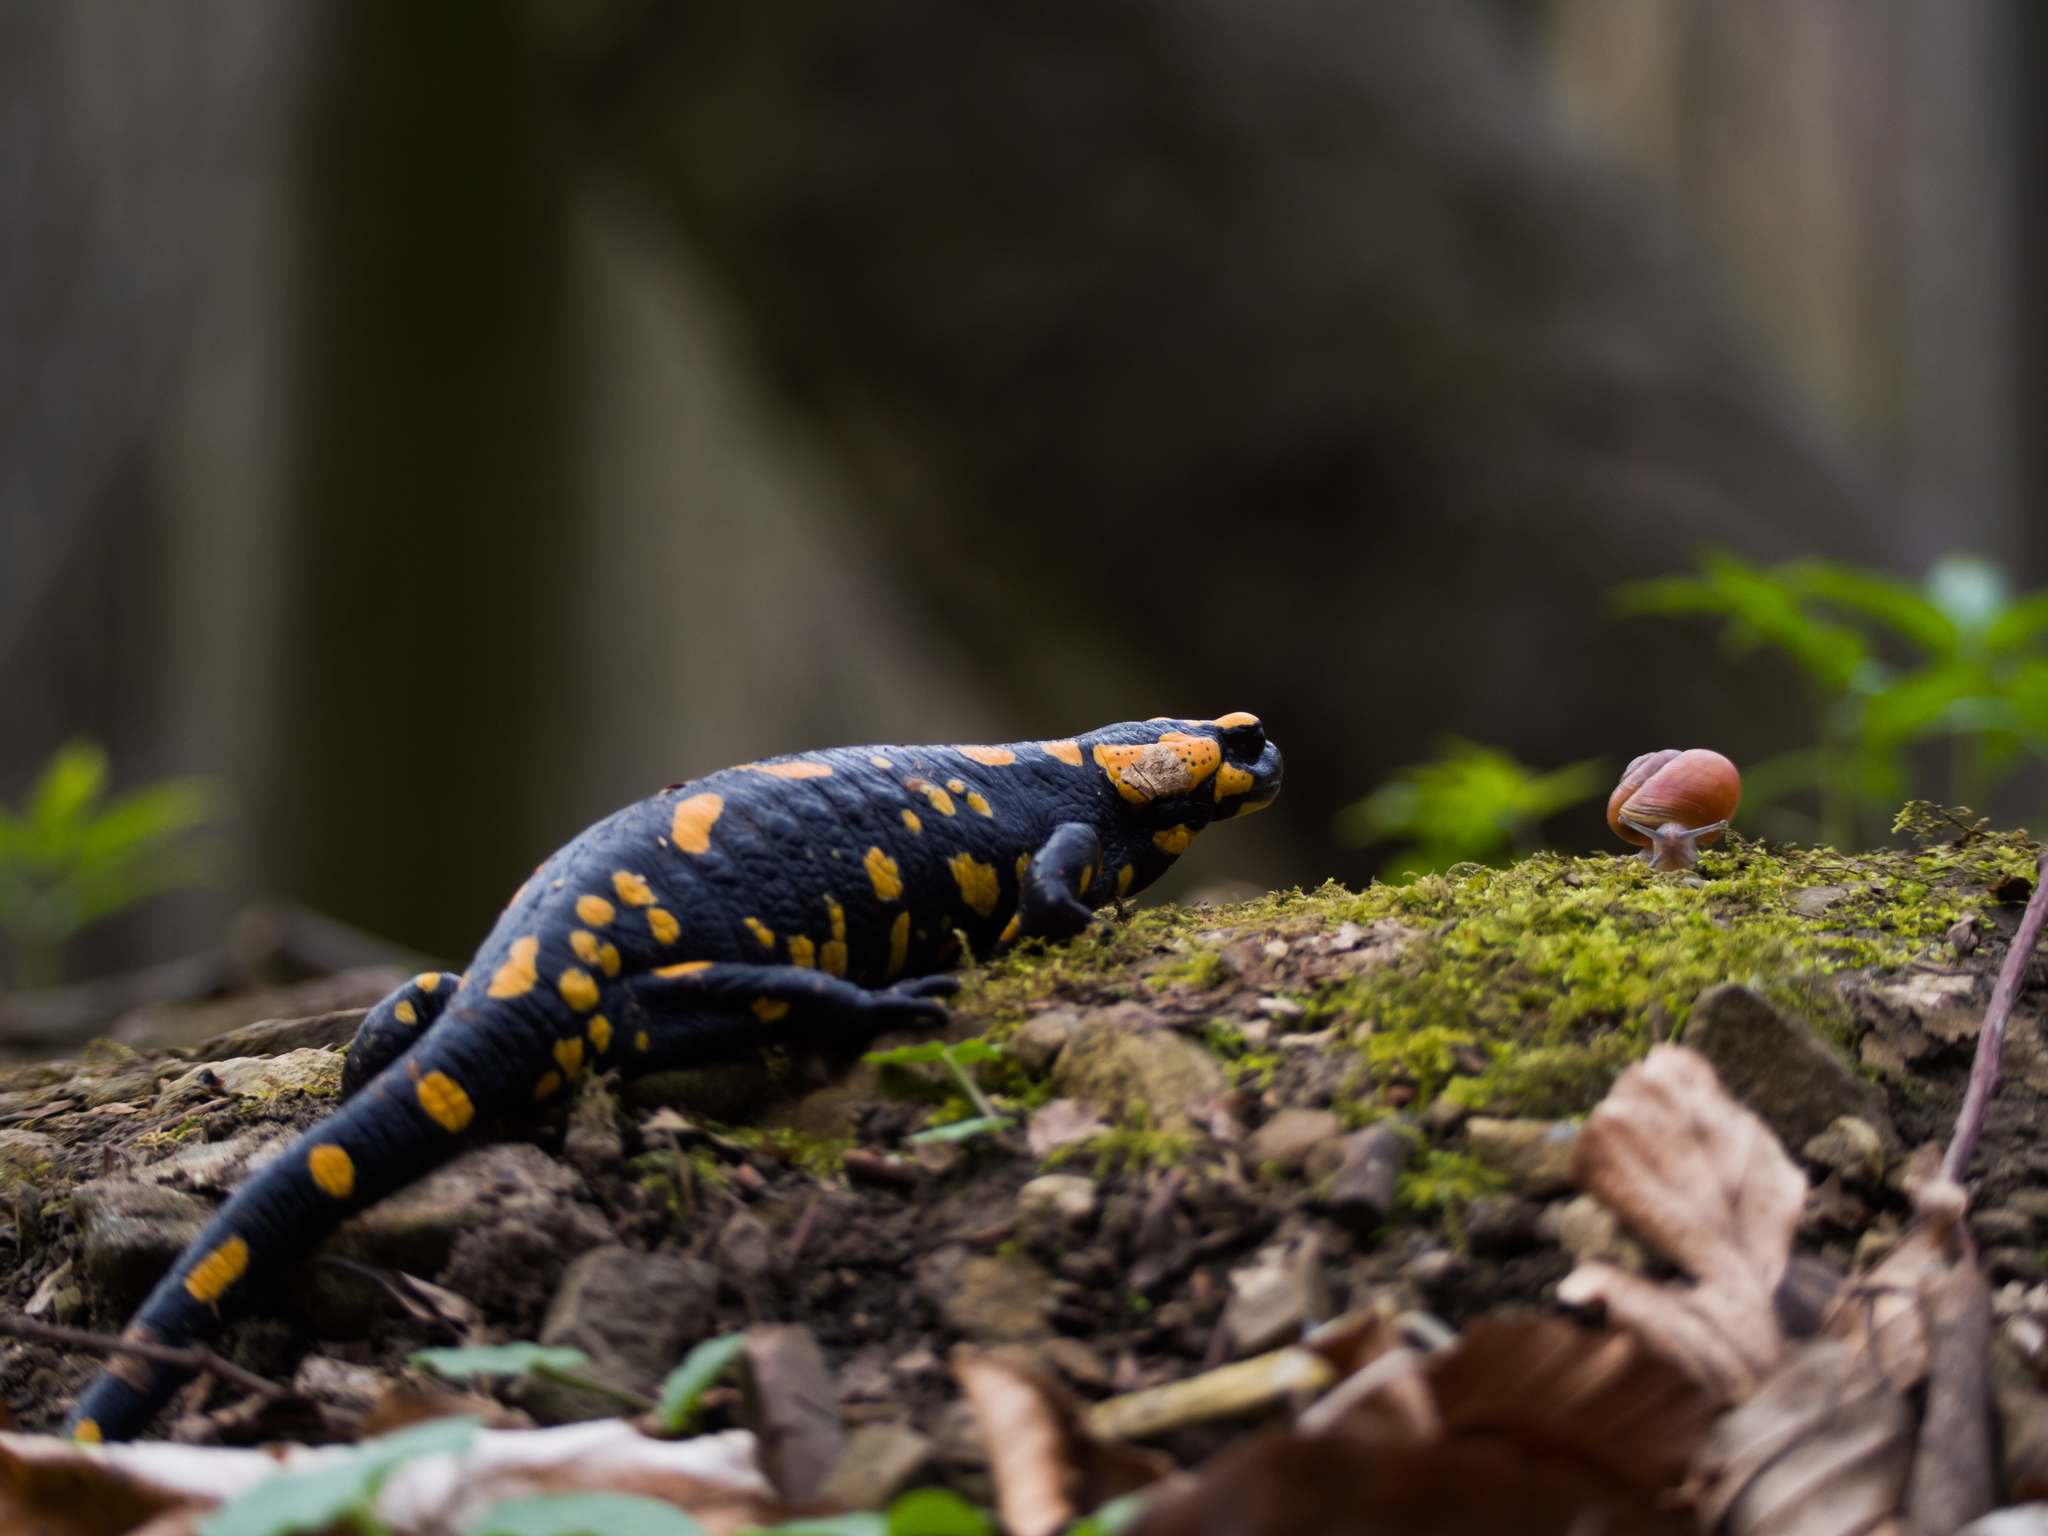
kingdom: Animalia
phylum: Chordata
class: Amphibia
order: Caudata
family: Salamandridae
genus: Salamandra
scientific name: Salamandra salamandra
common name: Fire salamander
